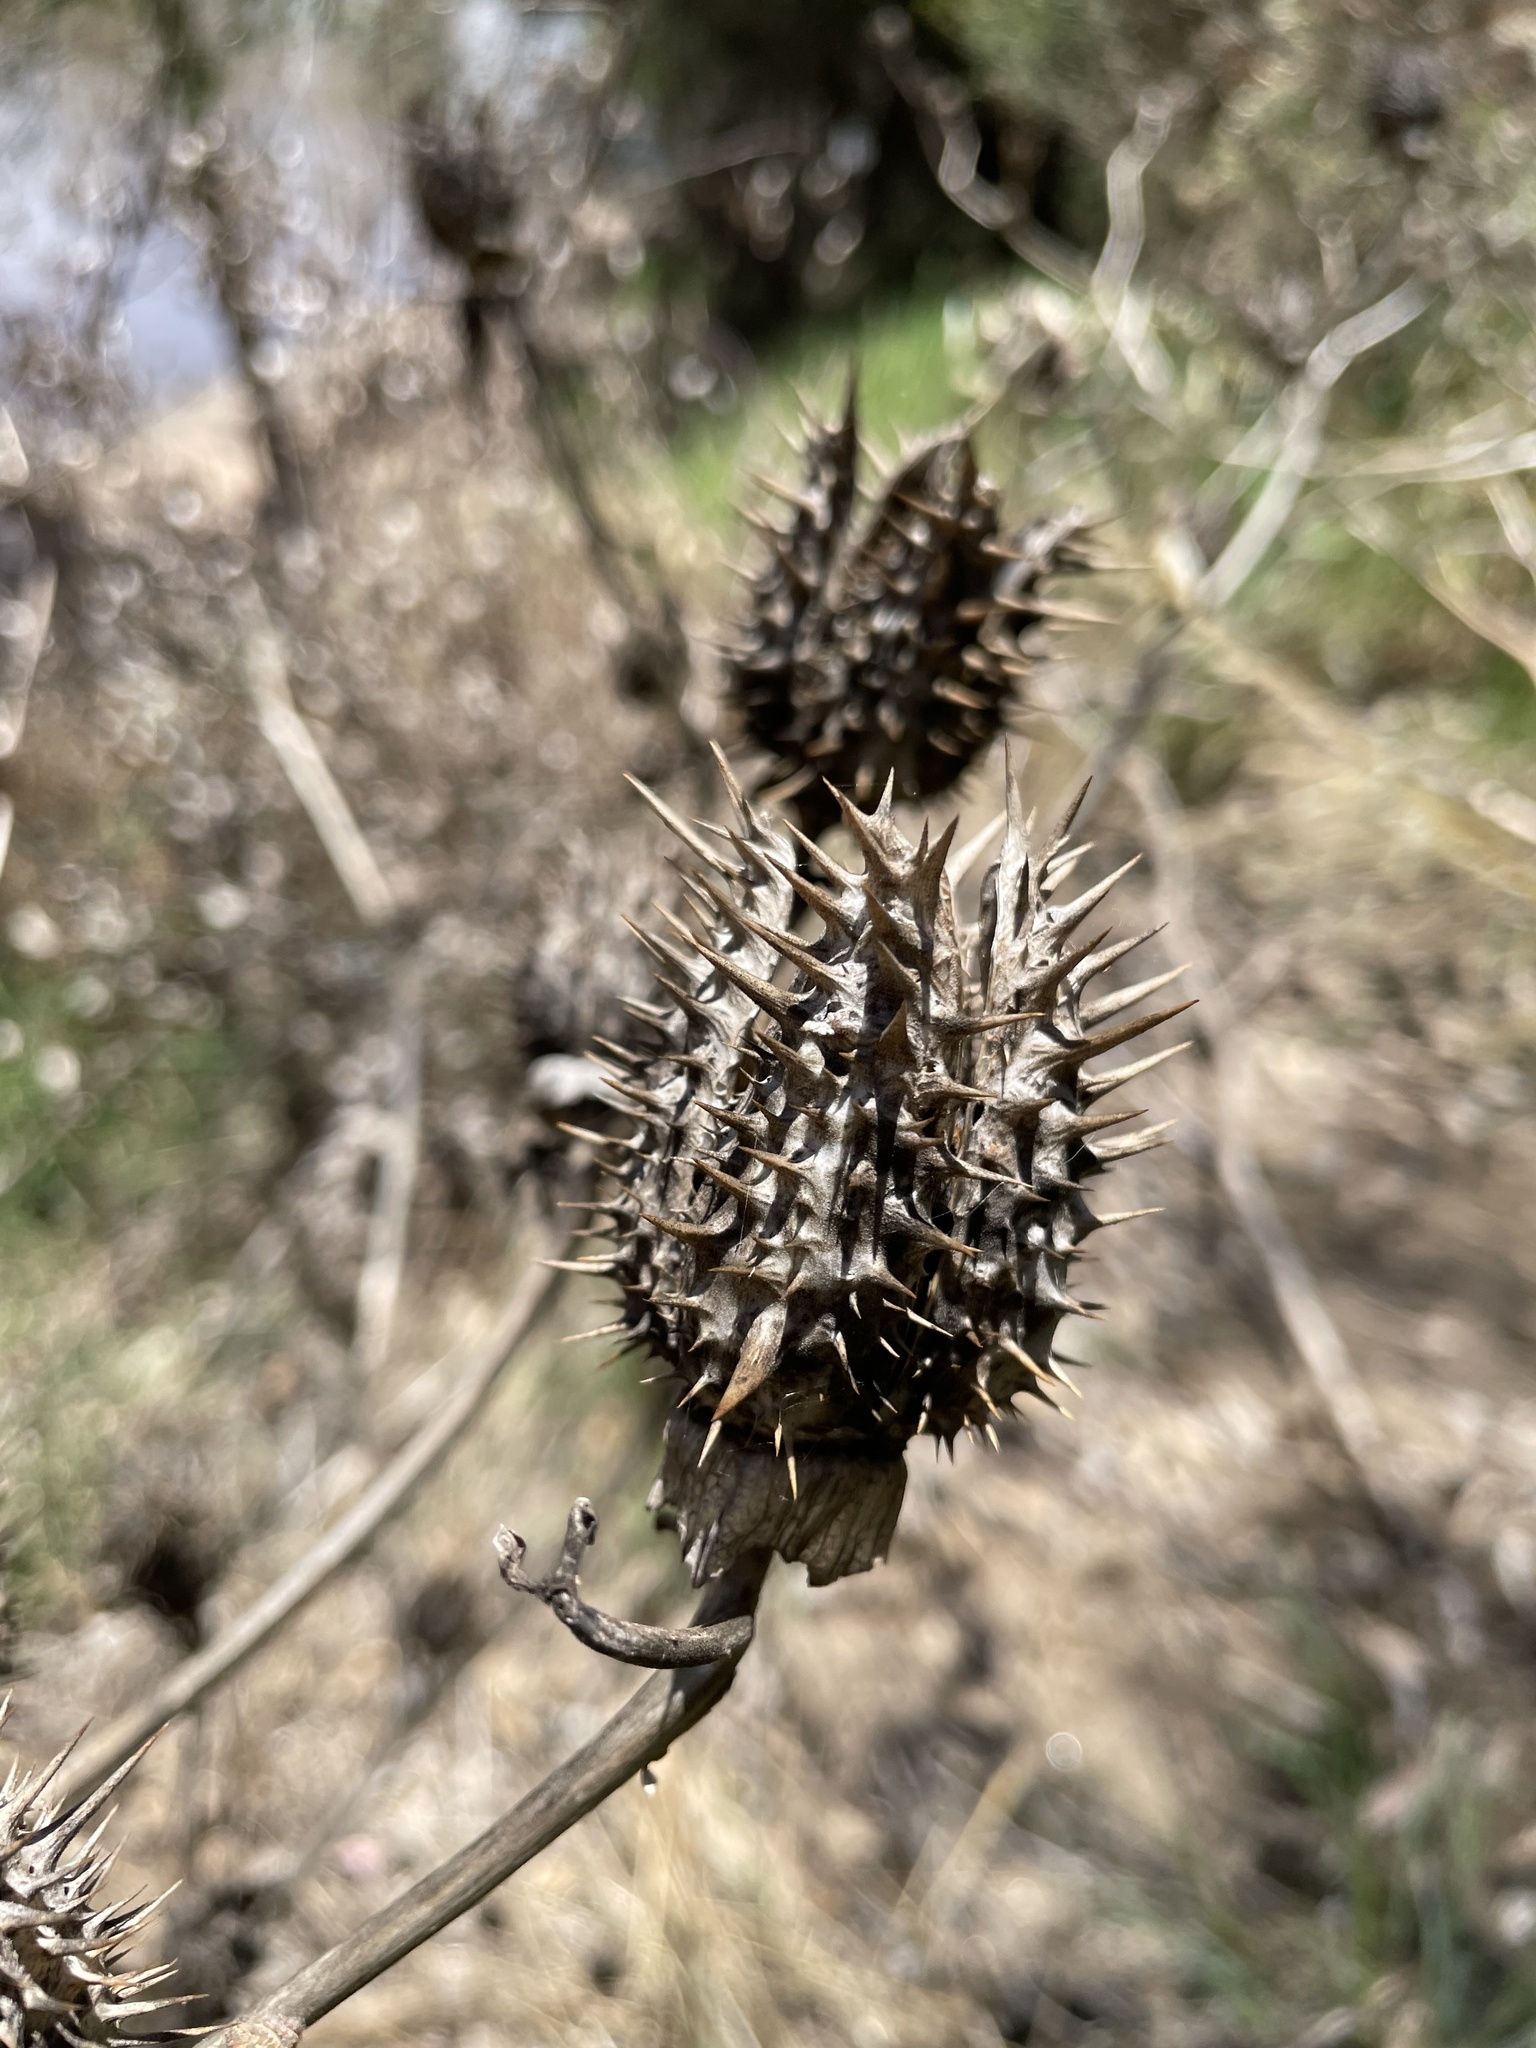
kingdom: Plantae
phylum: Tracheophyta
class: Magnoliopsida
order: Solanales
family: Solanaceae
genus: Datura
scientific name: Datura stramonium
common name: Thorn-apple
